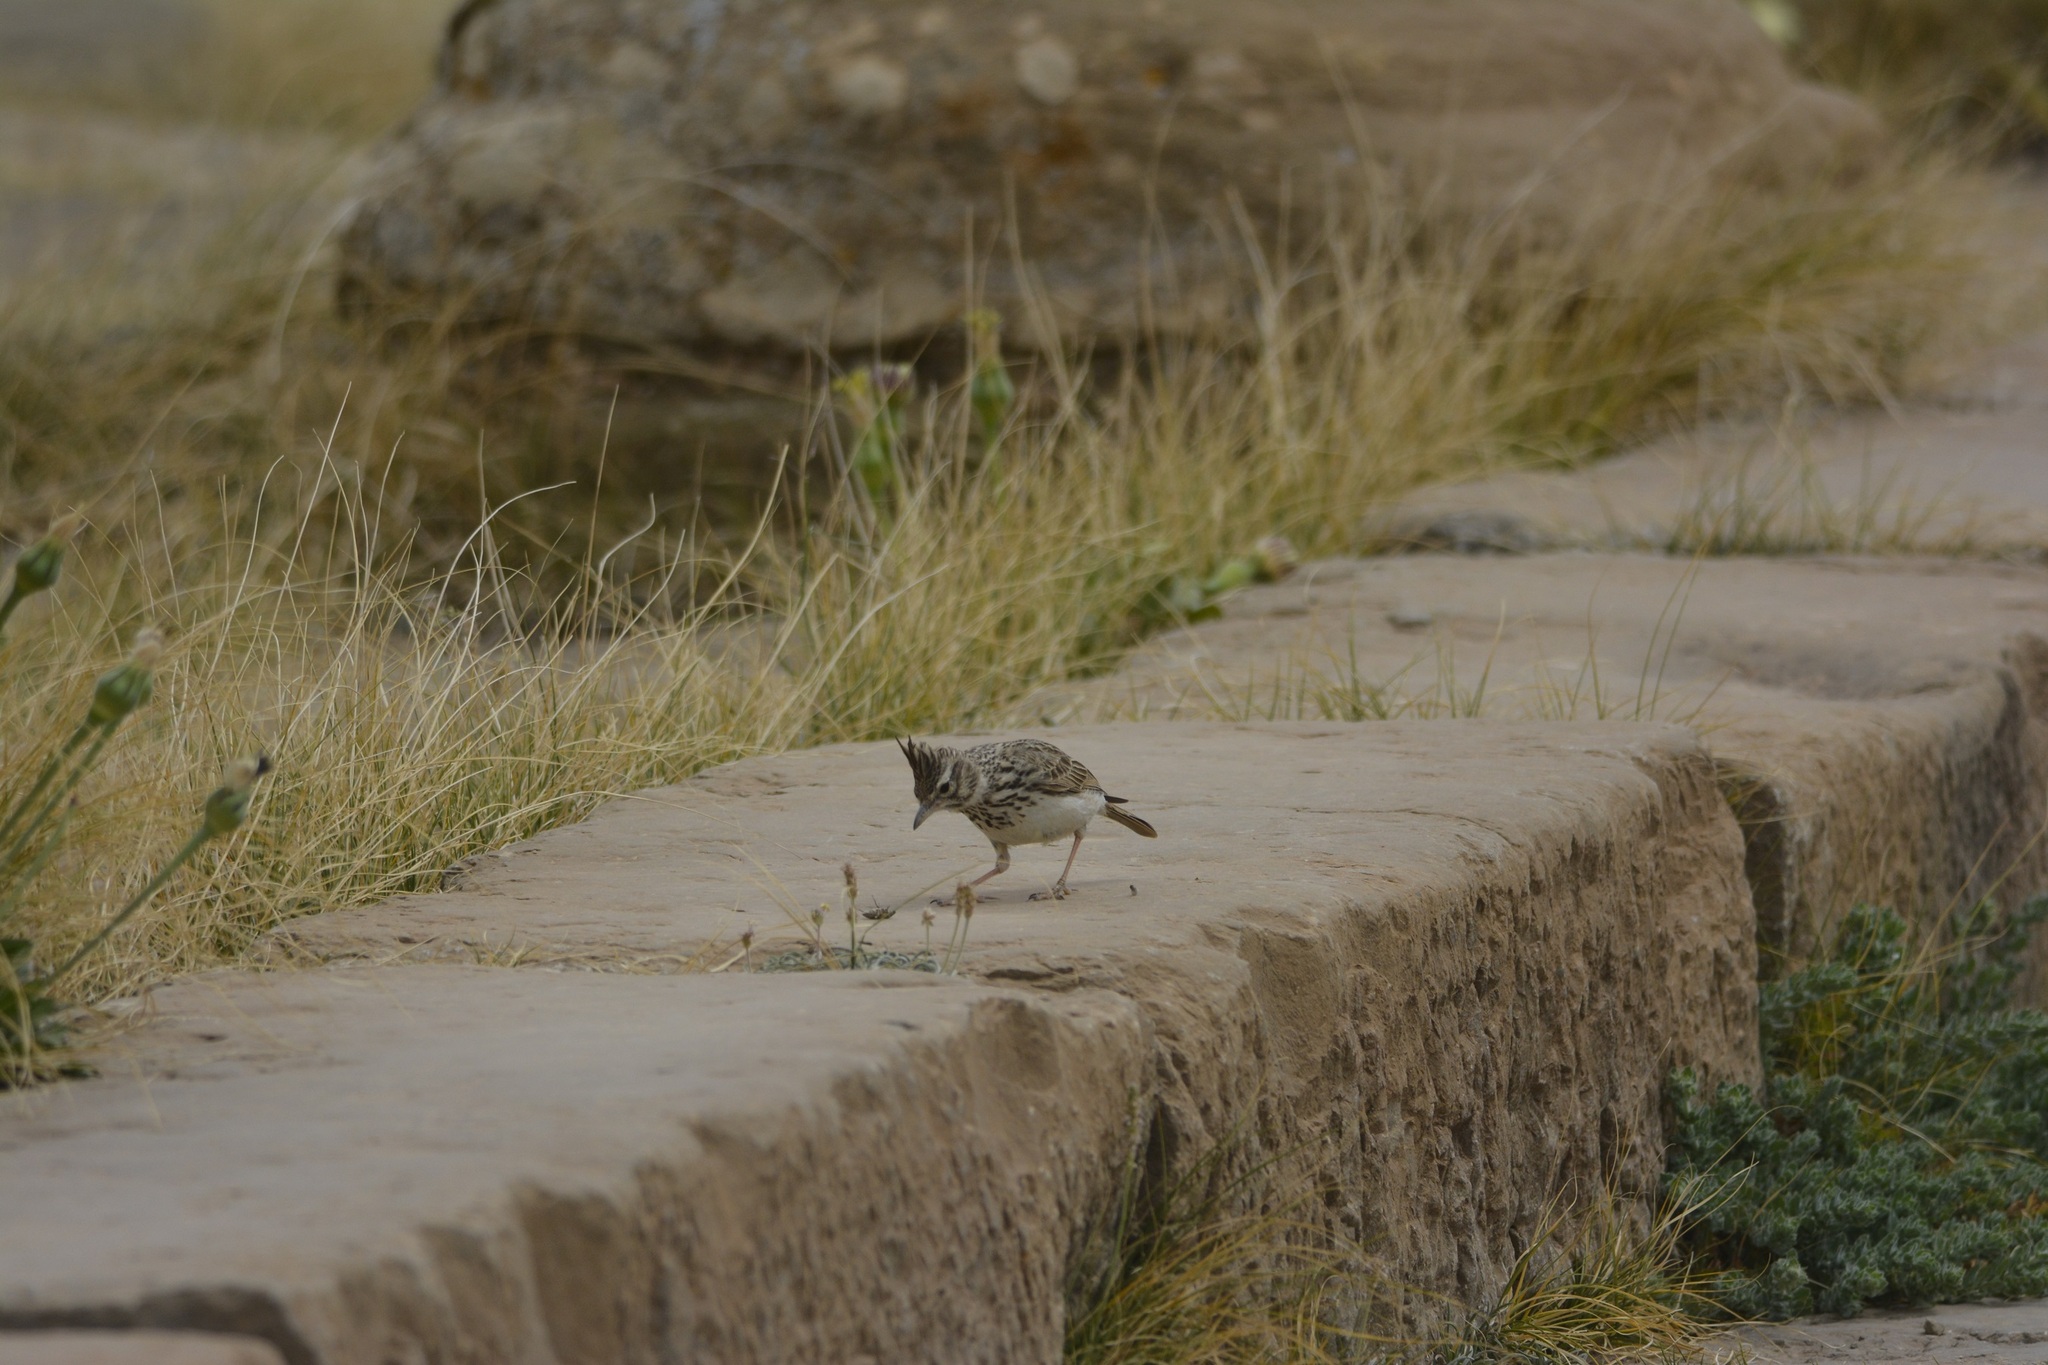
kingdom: Animalia
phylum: Chordata
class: Aves
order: Passeriformes
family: Alaudidae
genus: Galerida
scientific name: Galerida theklae
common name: Thekla lark
